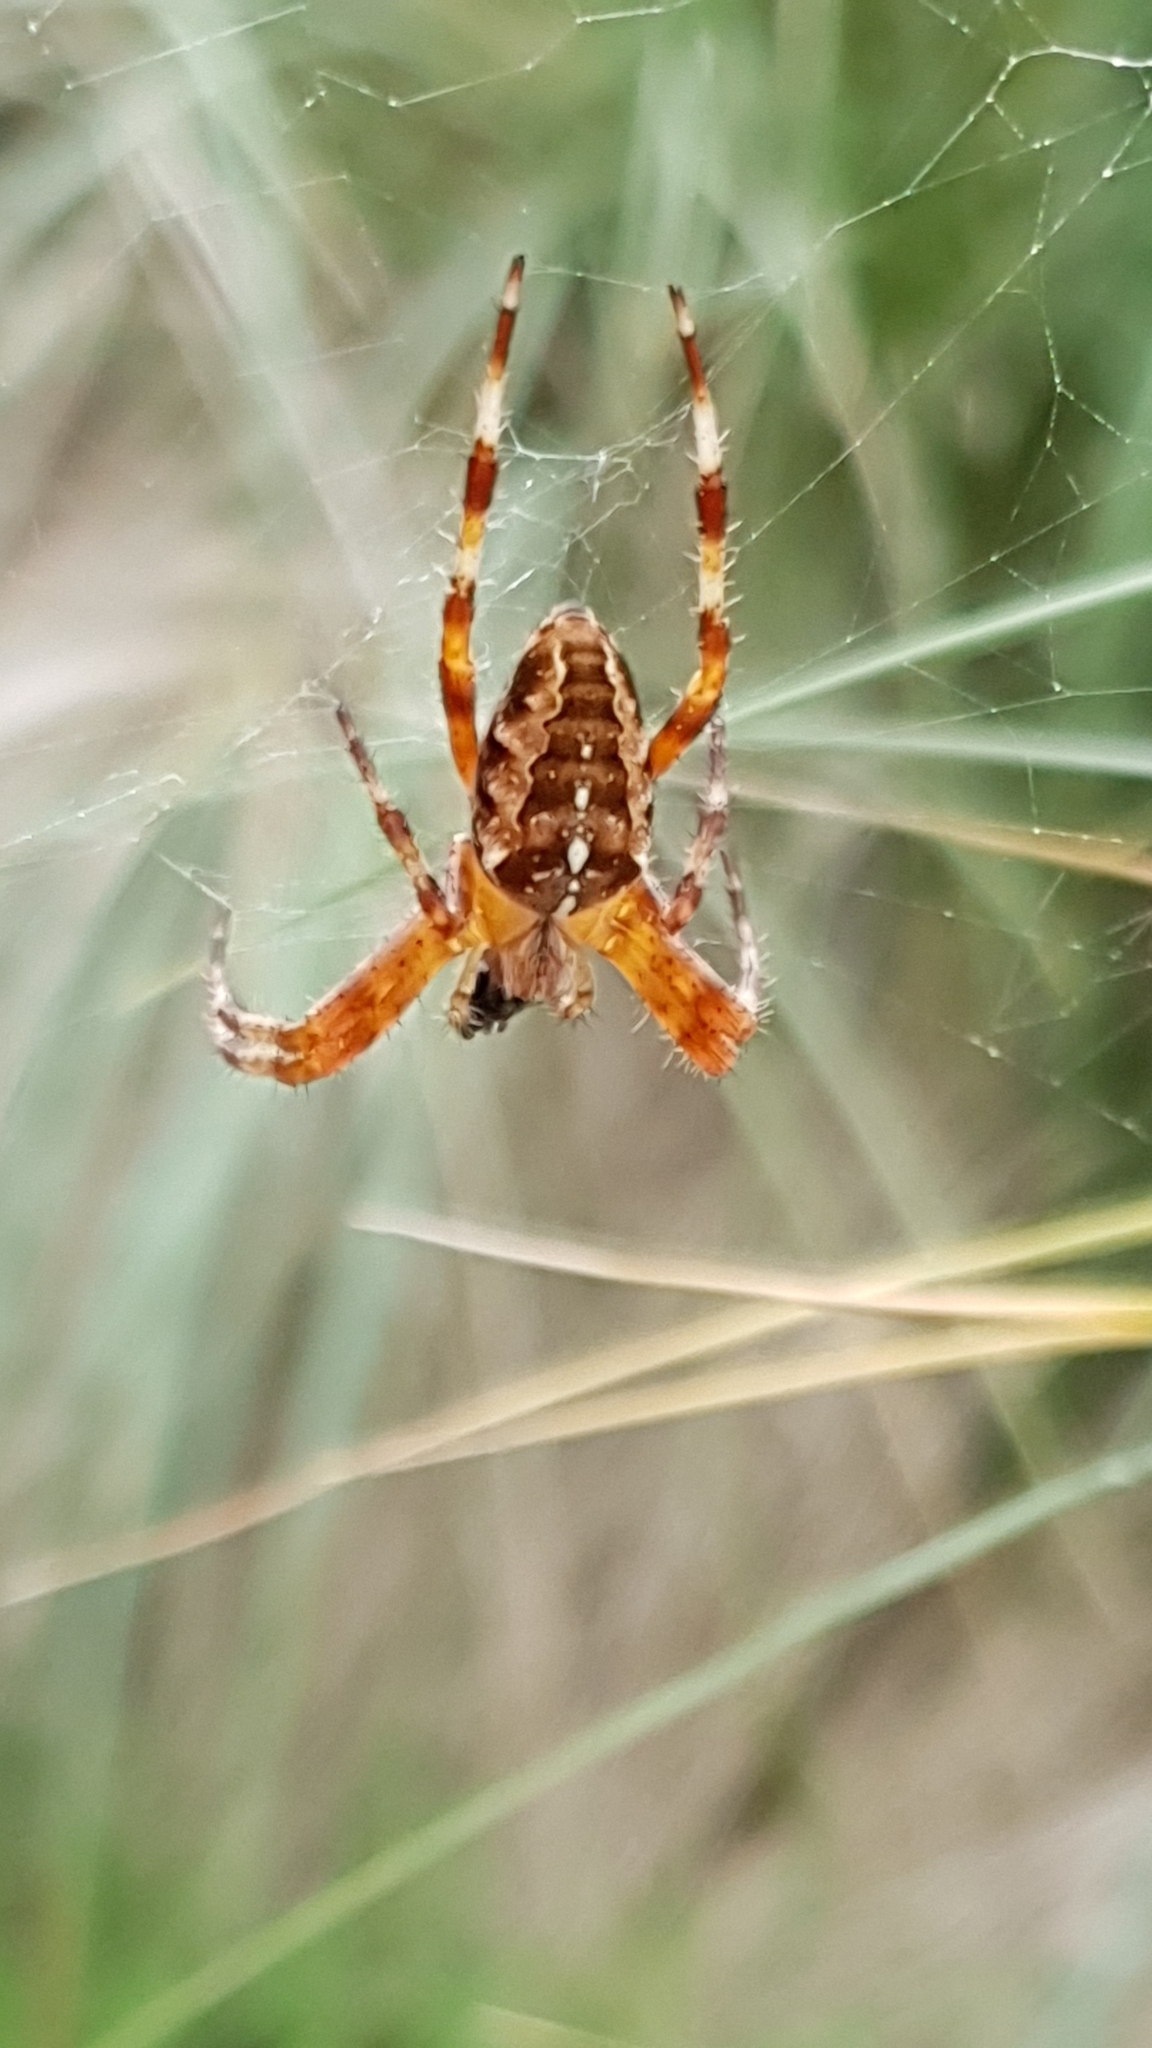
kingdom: Animalia
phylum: Arthropoda
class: Arachnida
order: Araneae
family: Araneidae
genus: Araneus
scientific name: Araneus diadematus
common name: Cross orbweaver
